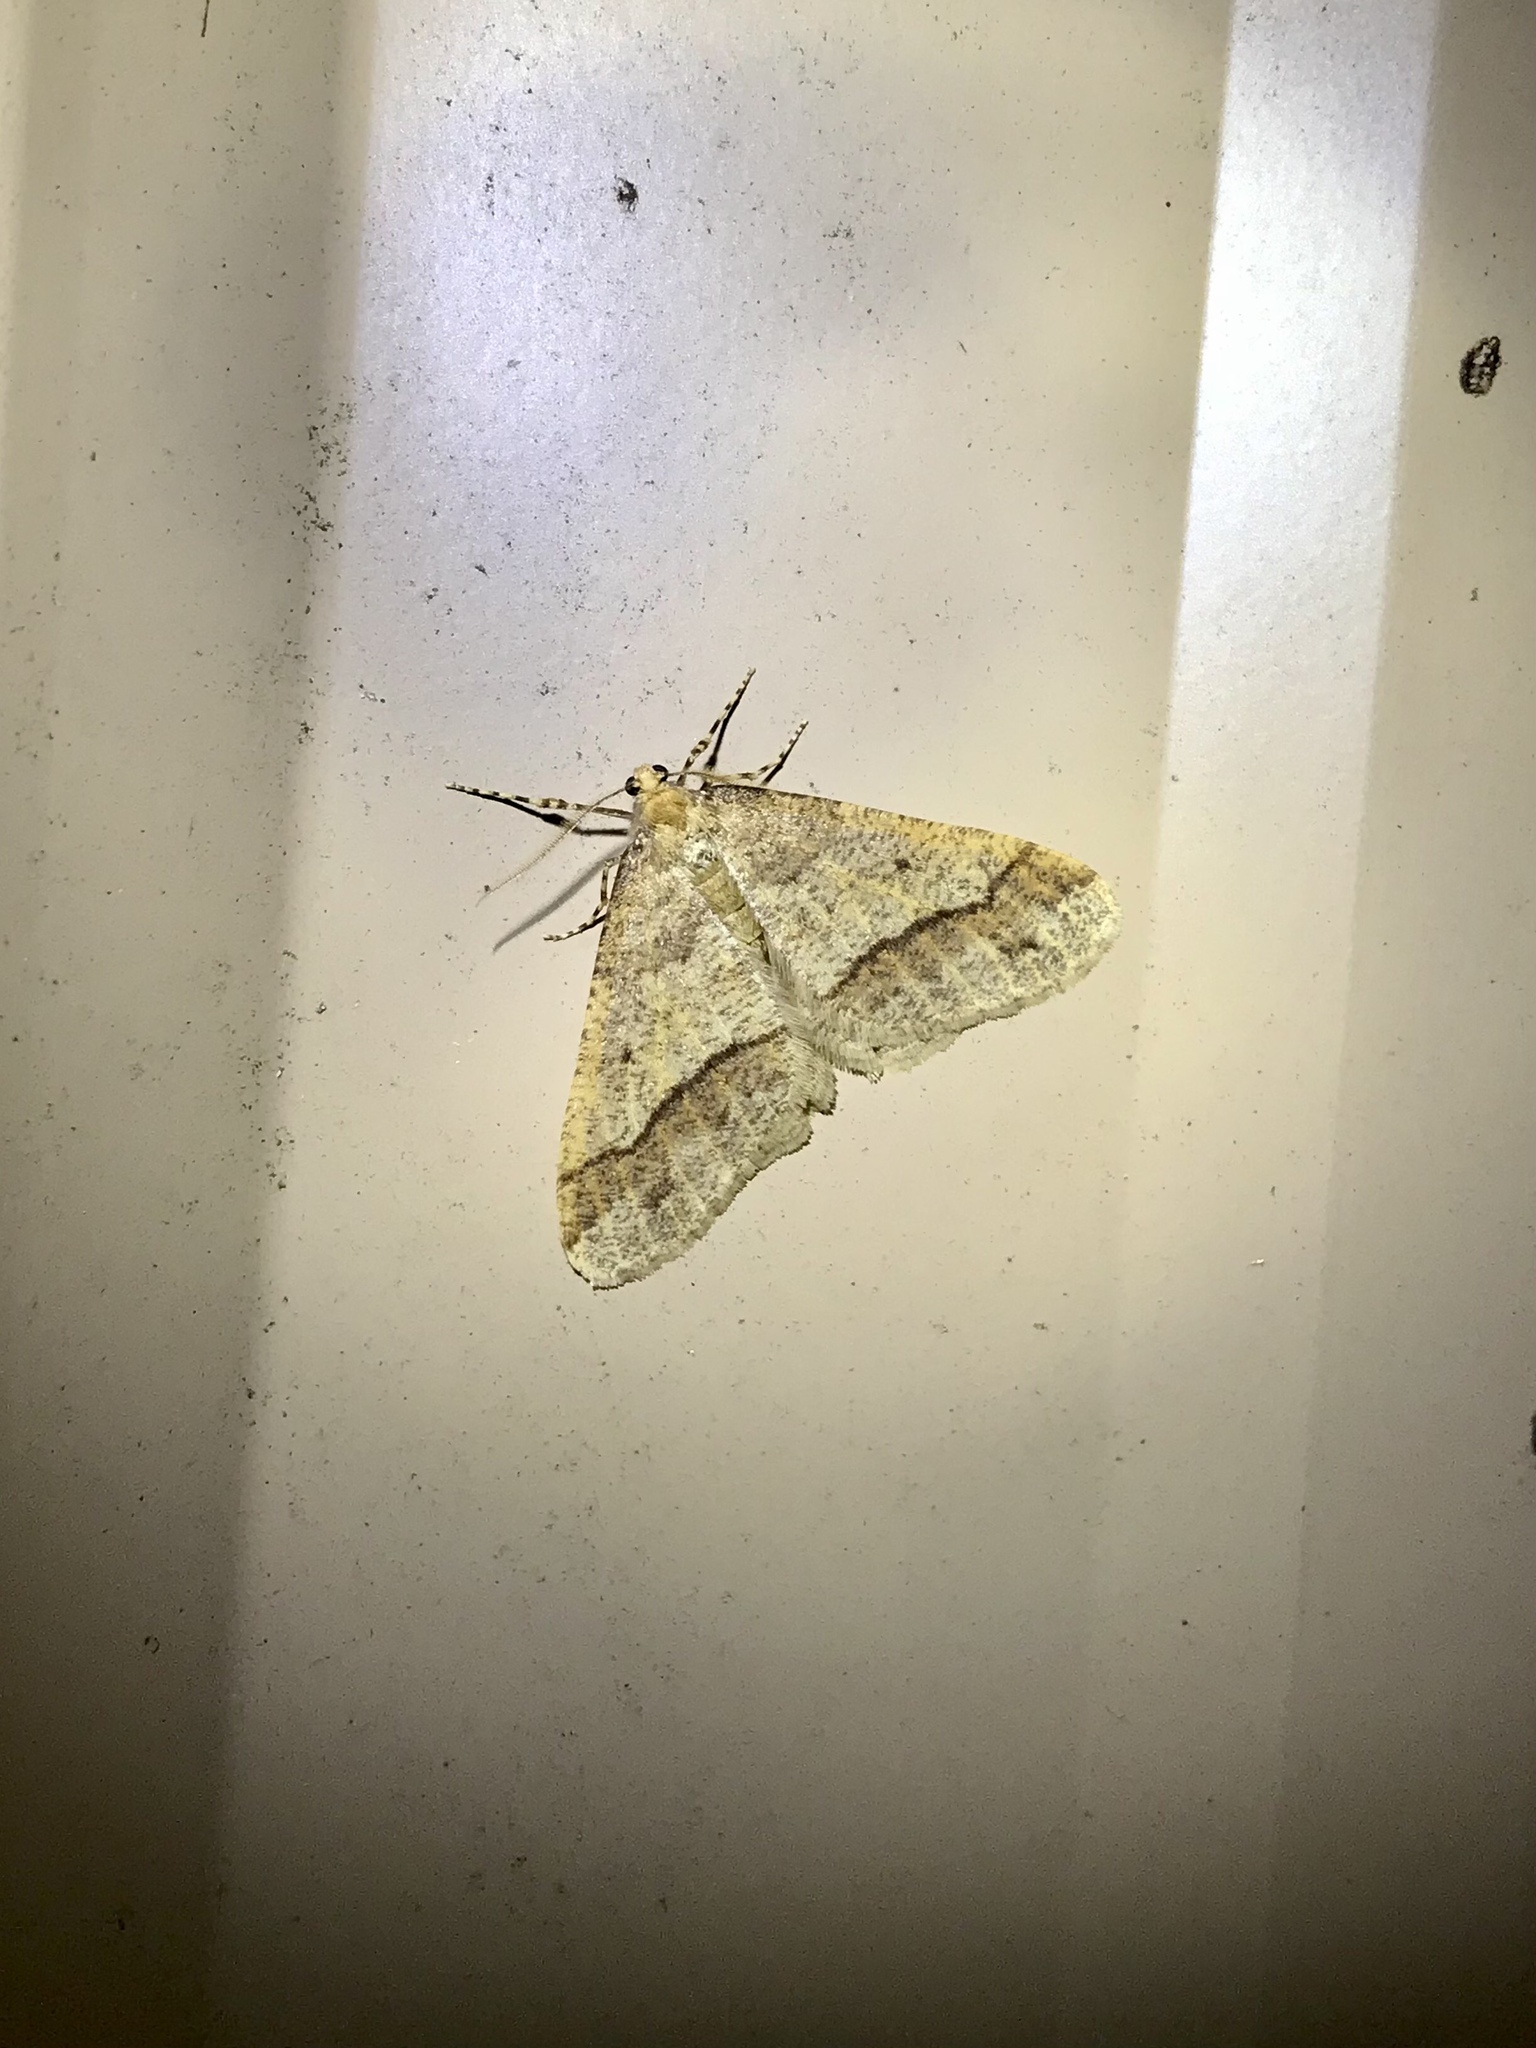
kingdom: Animalia
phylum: Arthropoda
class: Insecta
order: Lepidoptera
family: Geometridae
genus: Erannis
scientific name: Erannis tiliaria
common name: Linden looper
